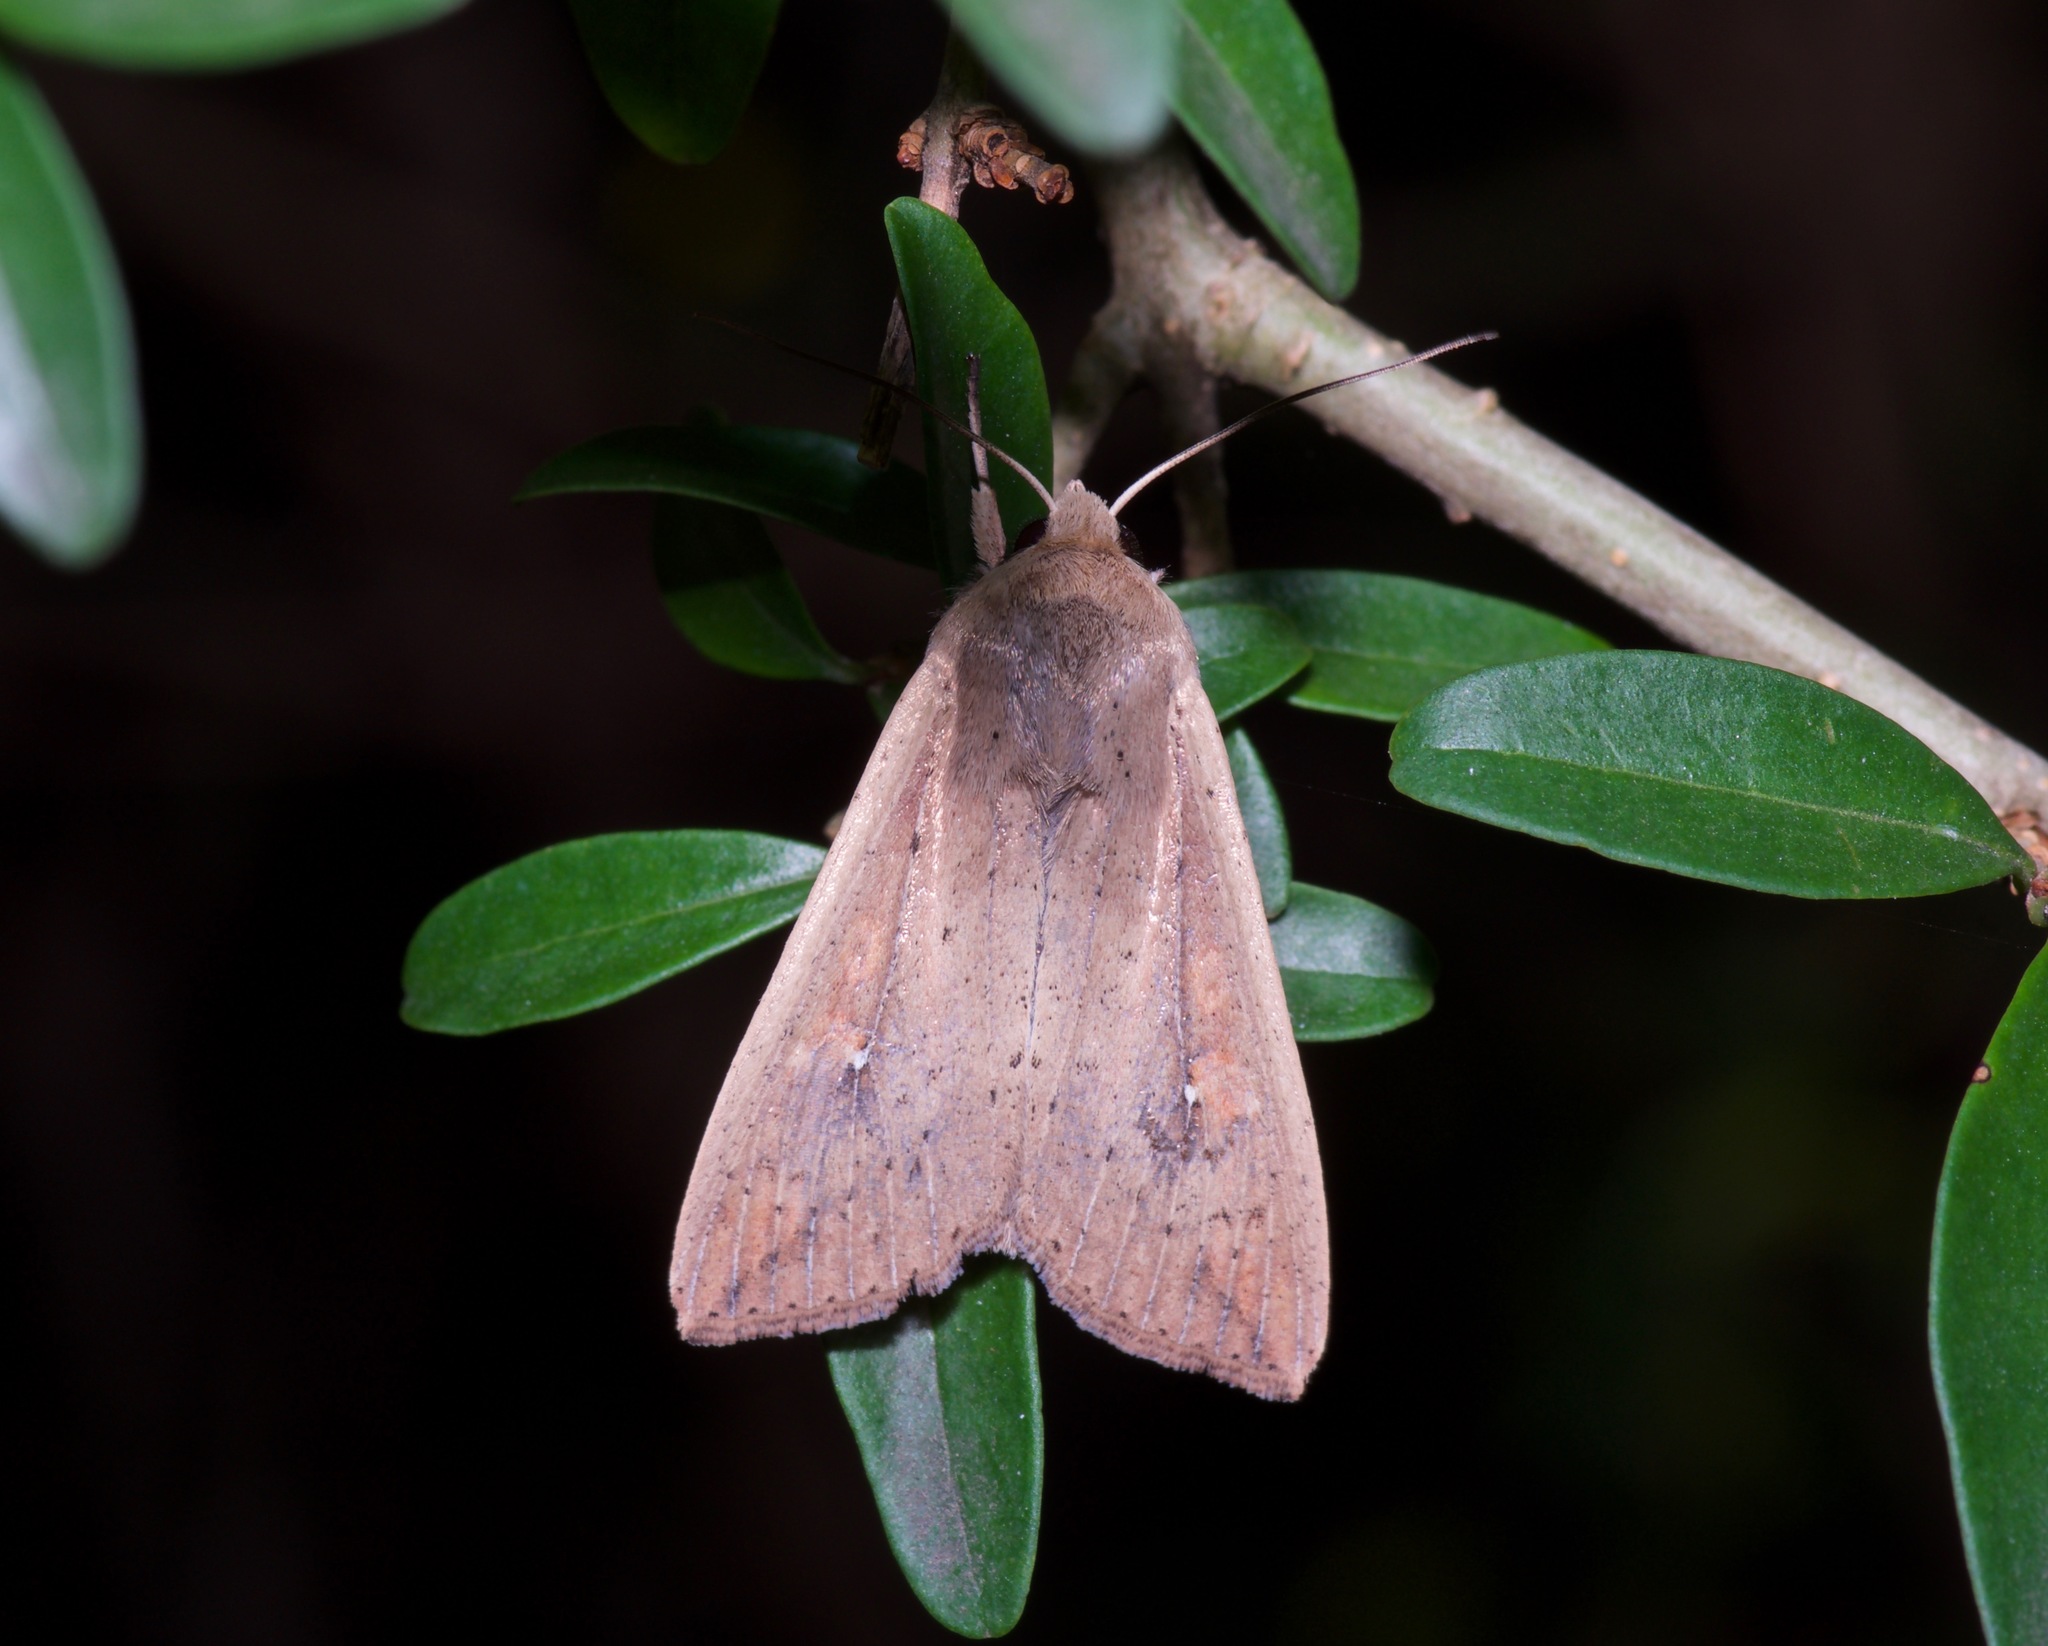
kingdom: Animalia
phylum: Arthropoda
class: Insecta
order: Lepidoptera
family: Noctuidae
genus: Mythimna
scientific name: Mythimna unipuncta
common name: White-speck
